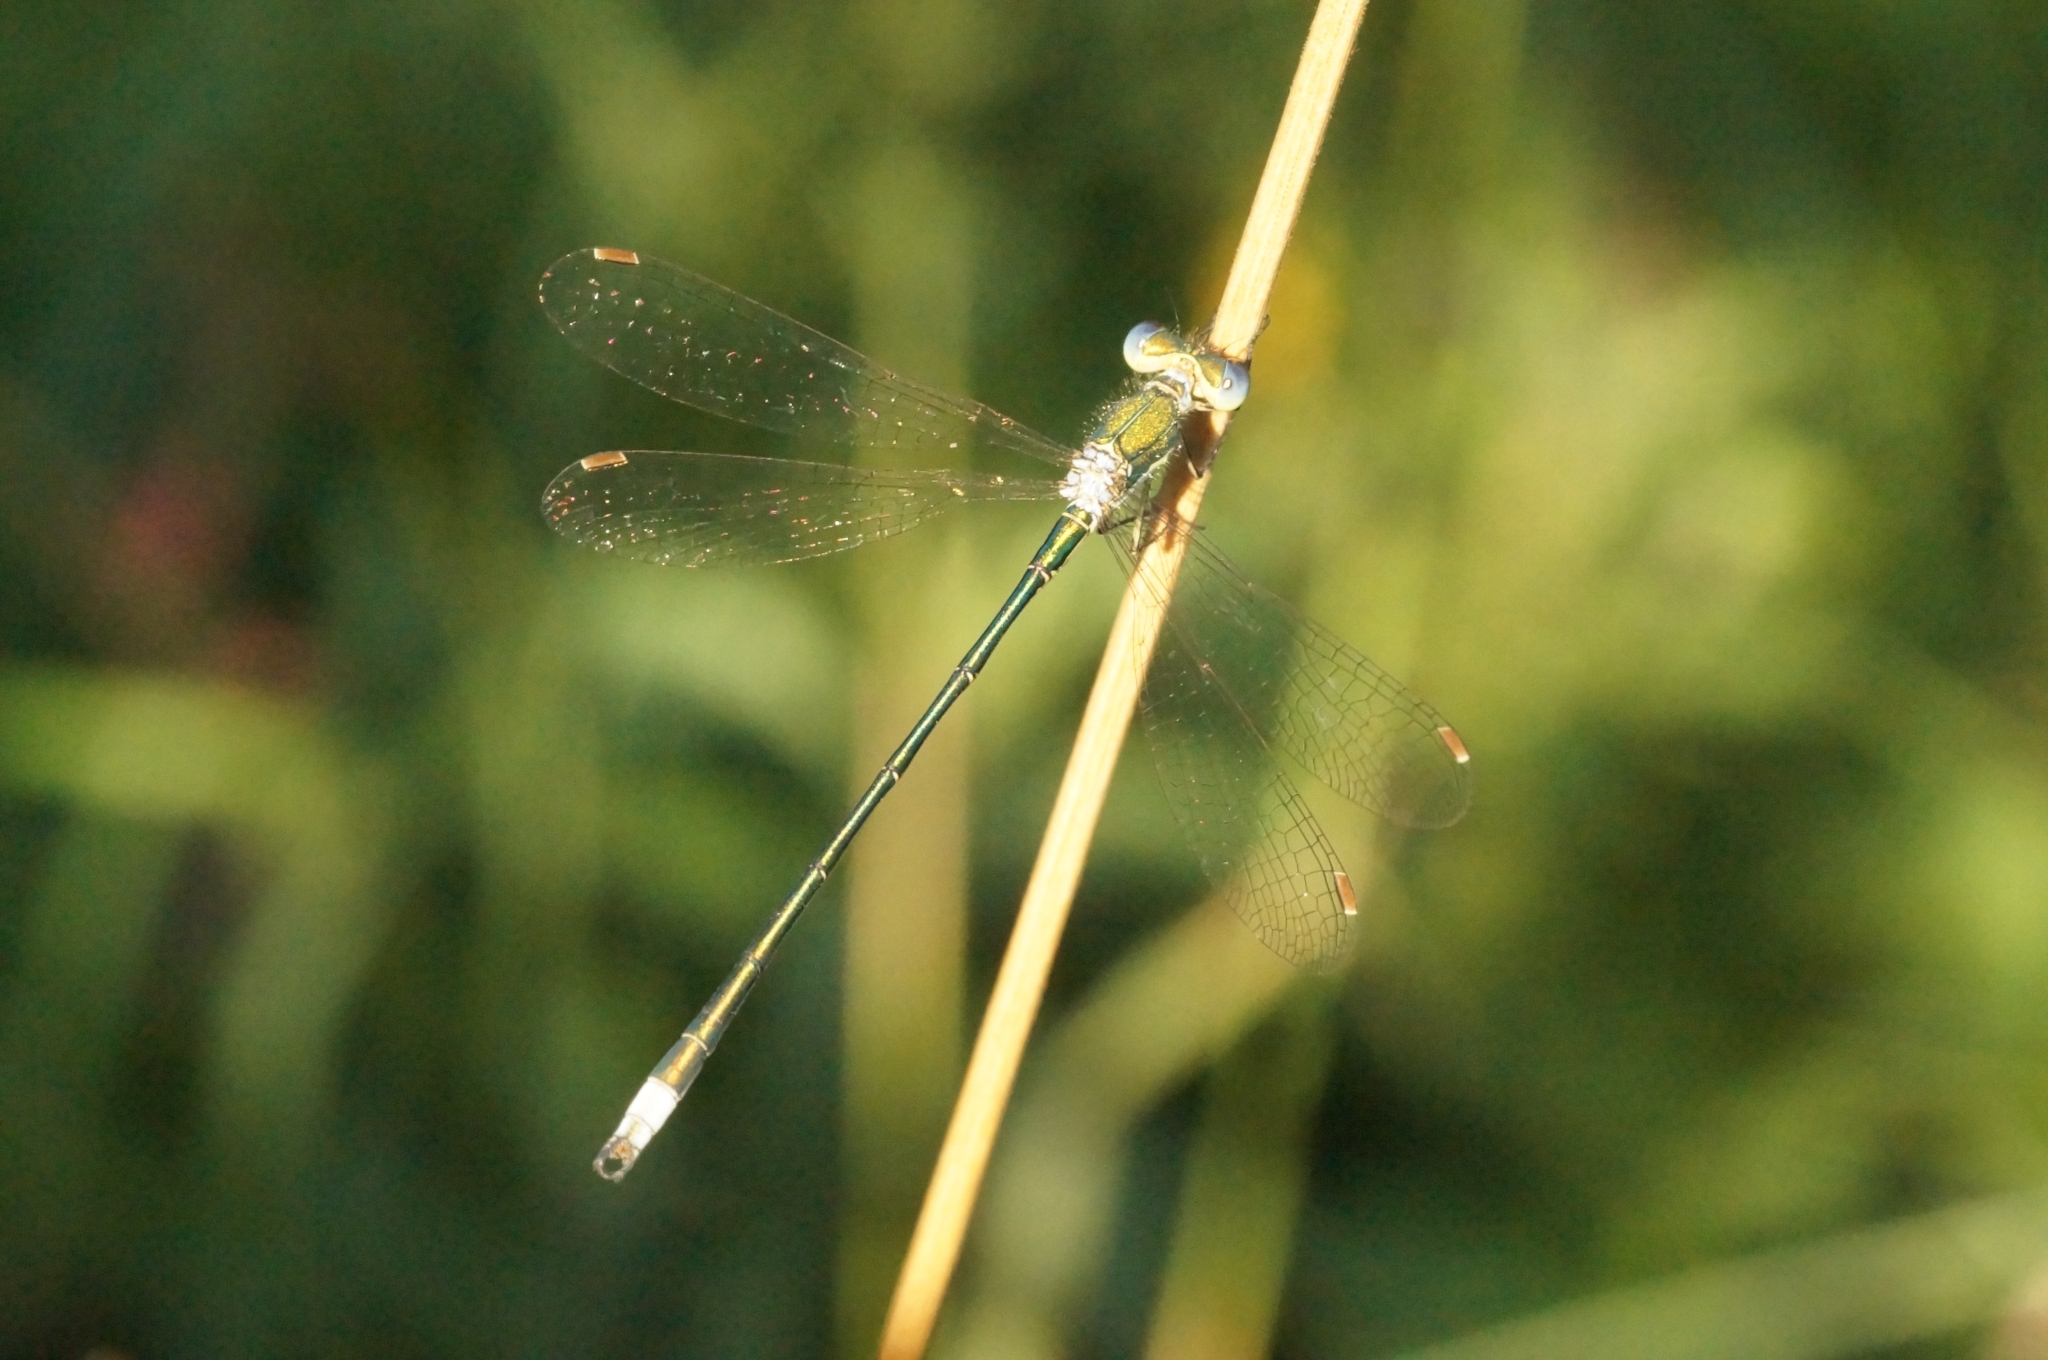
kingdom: Animalia
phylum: Arthropoda
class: Insecta
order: Odonata
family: Lestidae
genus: Lestes
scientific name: Lestes virens
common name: Small emerald spreadwing
